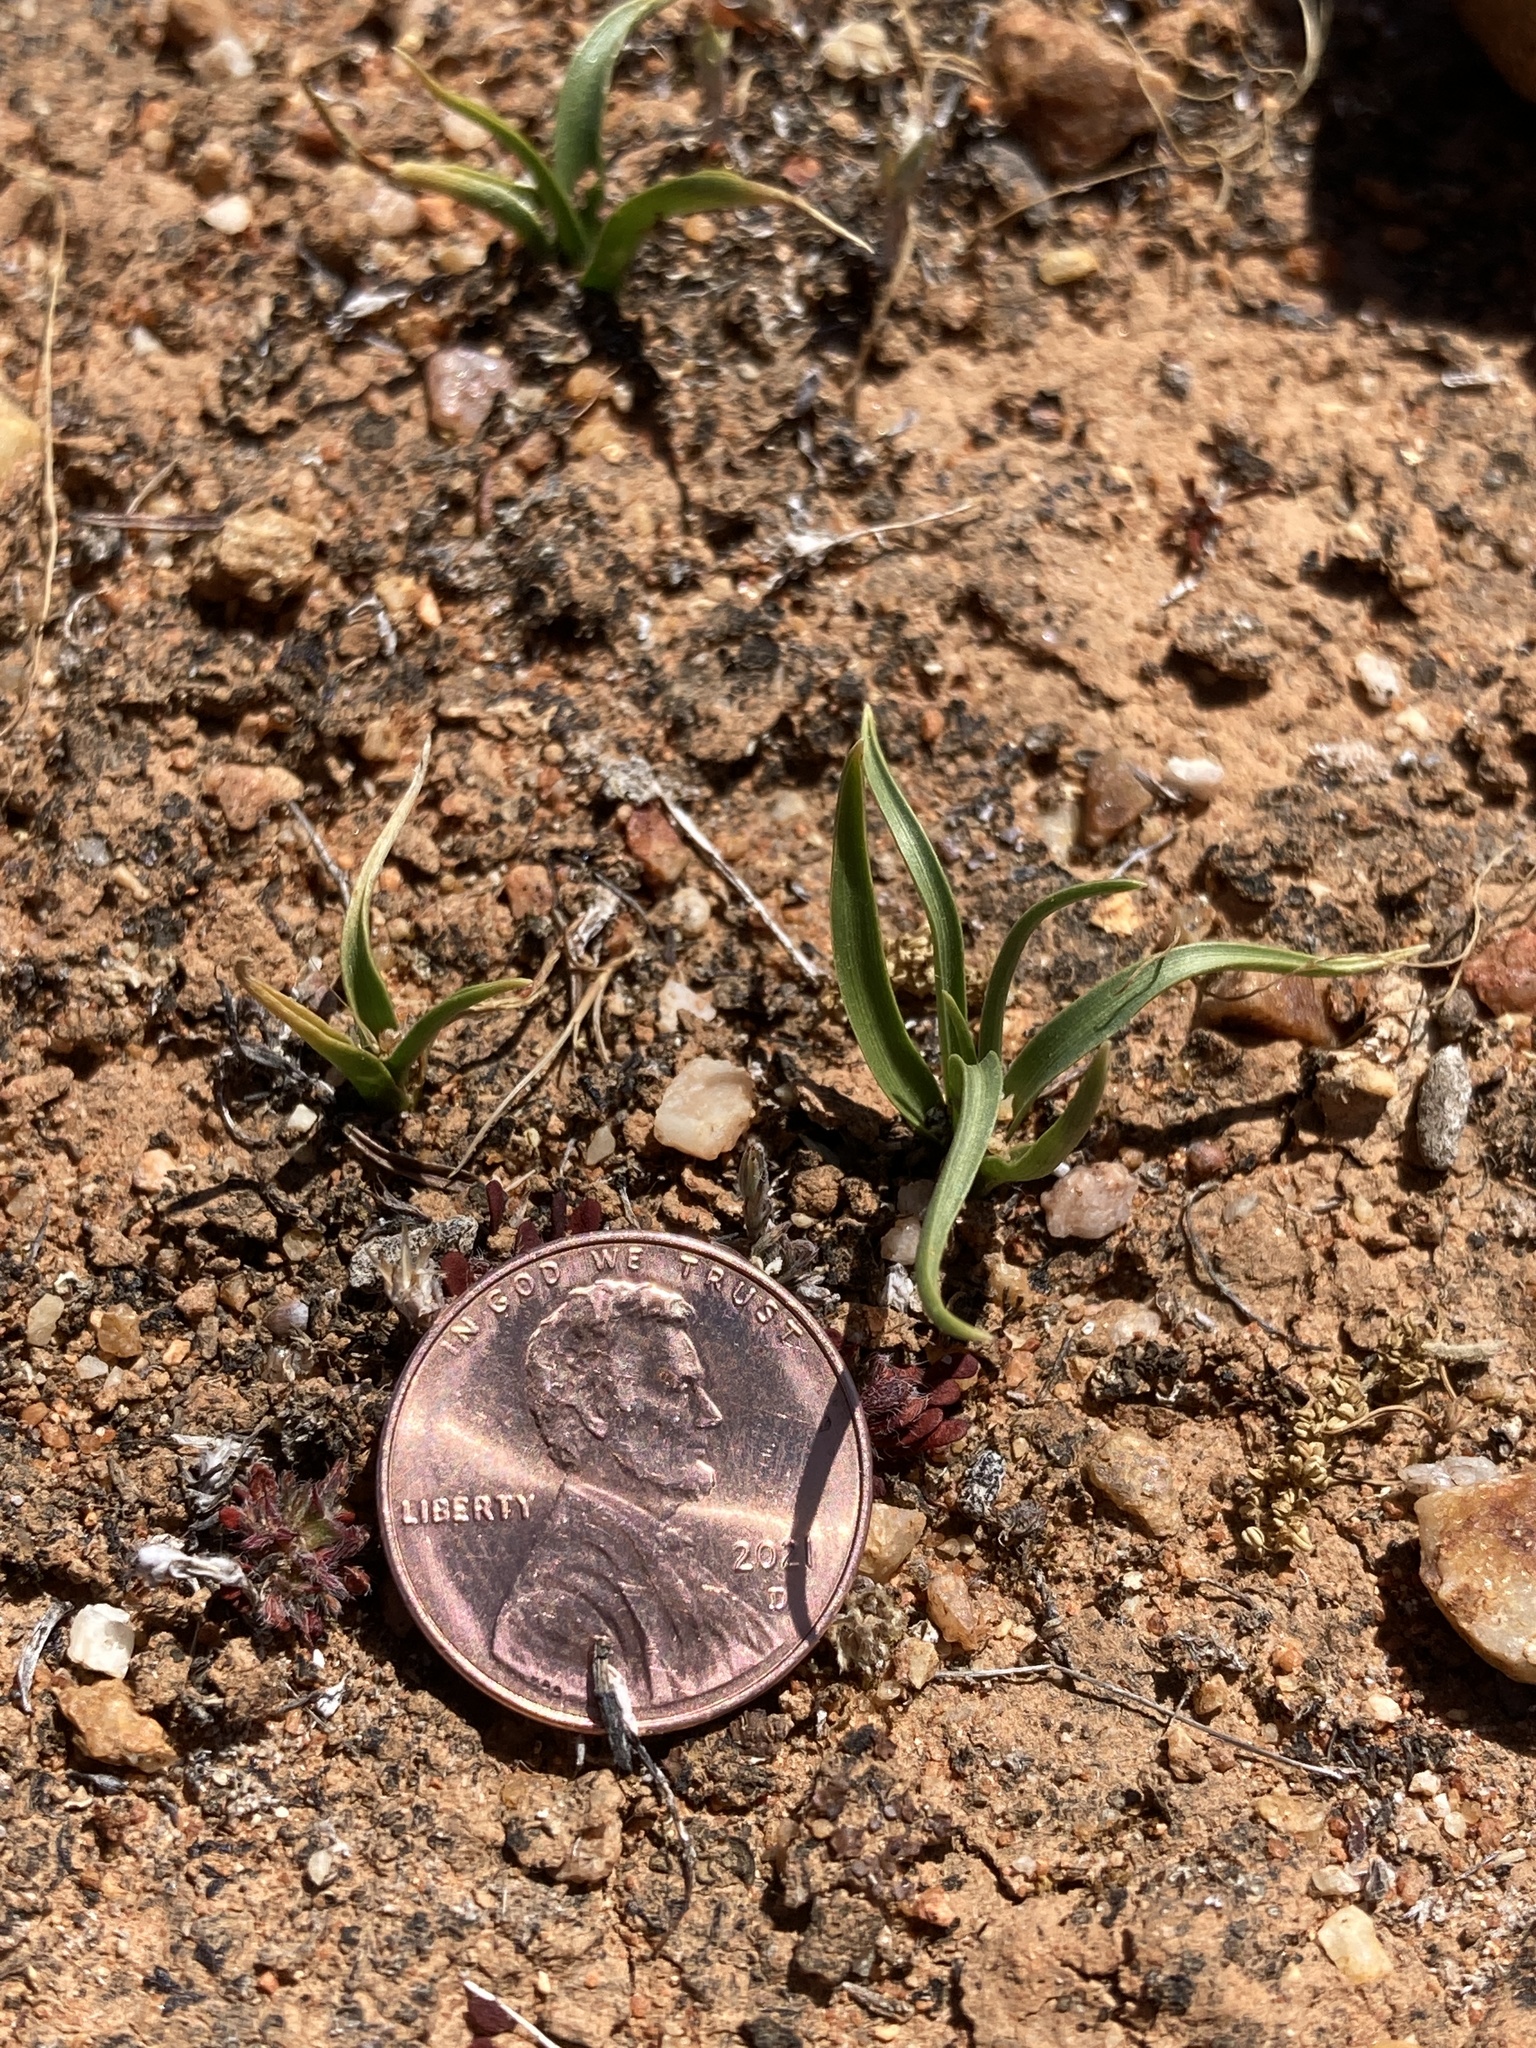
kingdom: Plantae
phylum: Tracheophyta
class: Liliopsida
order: Asparagales
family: Asparagaceae
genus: Hooveria
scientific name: Hooveria purpurea
